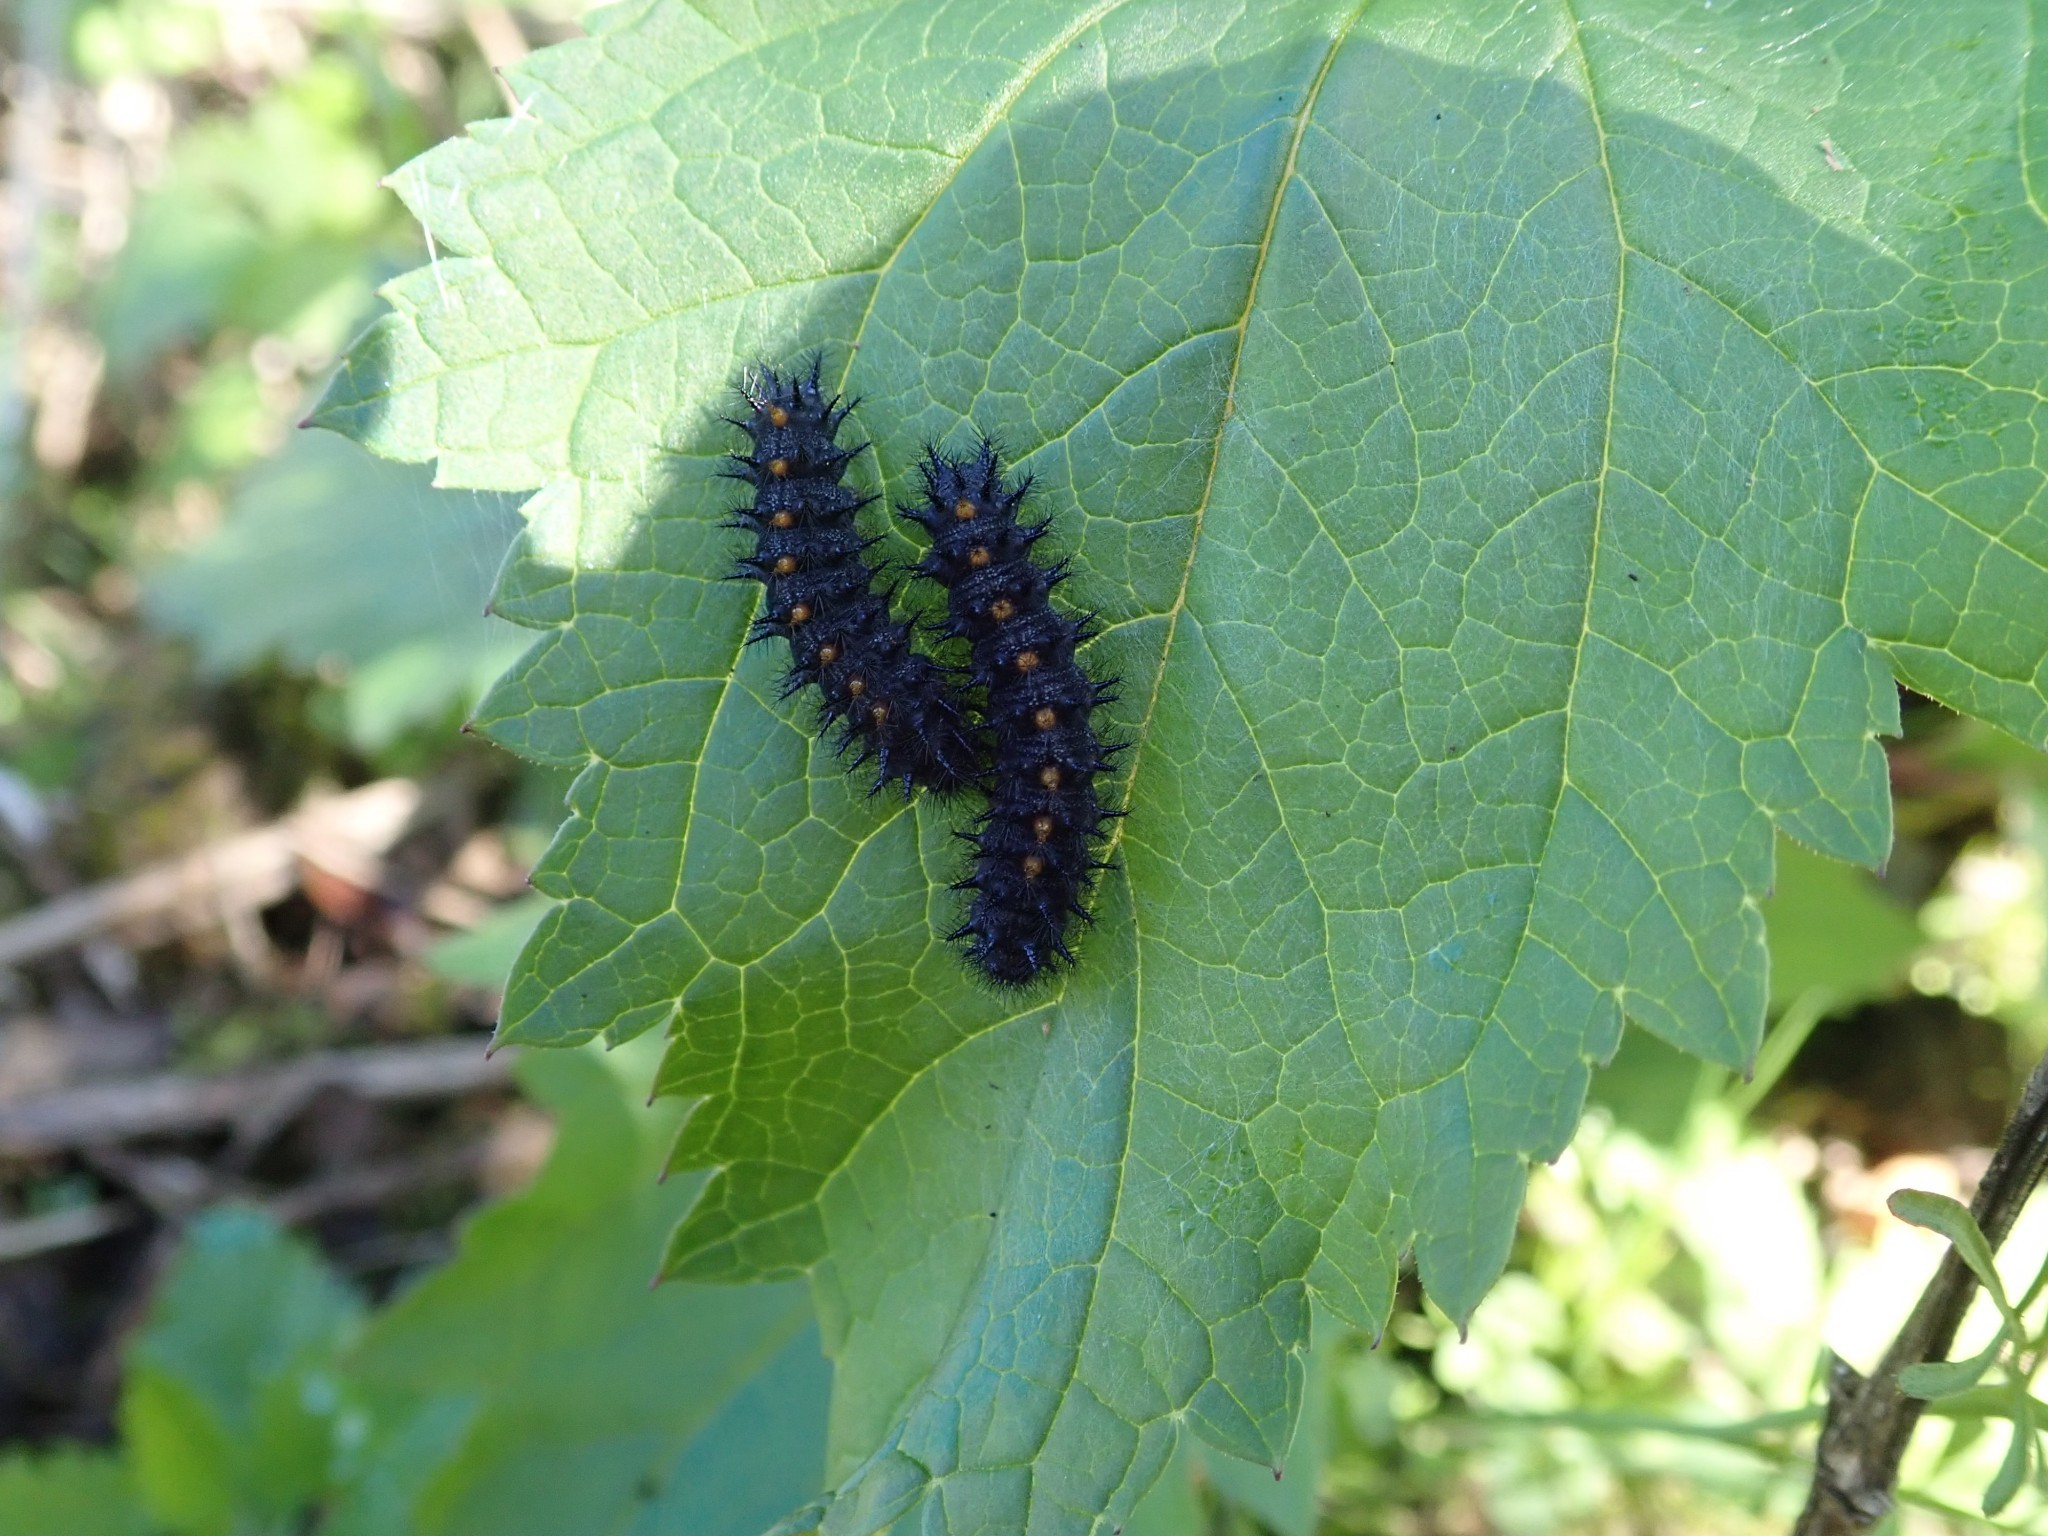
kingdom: Animalia
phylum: Arthropoda
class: Insecta
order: Lepidoptera
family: Nymphalidae
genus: Occidryas
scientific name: Occidryas chalcedona
